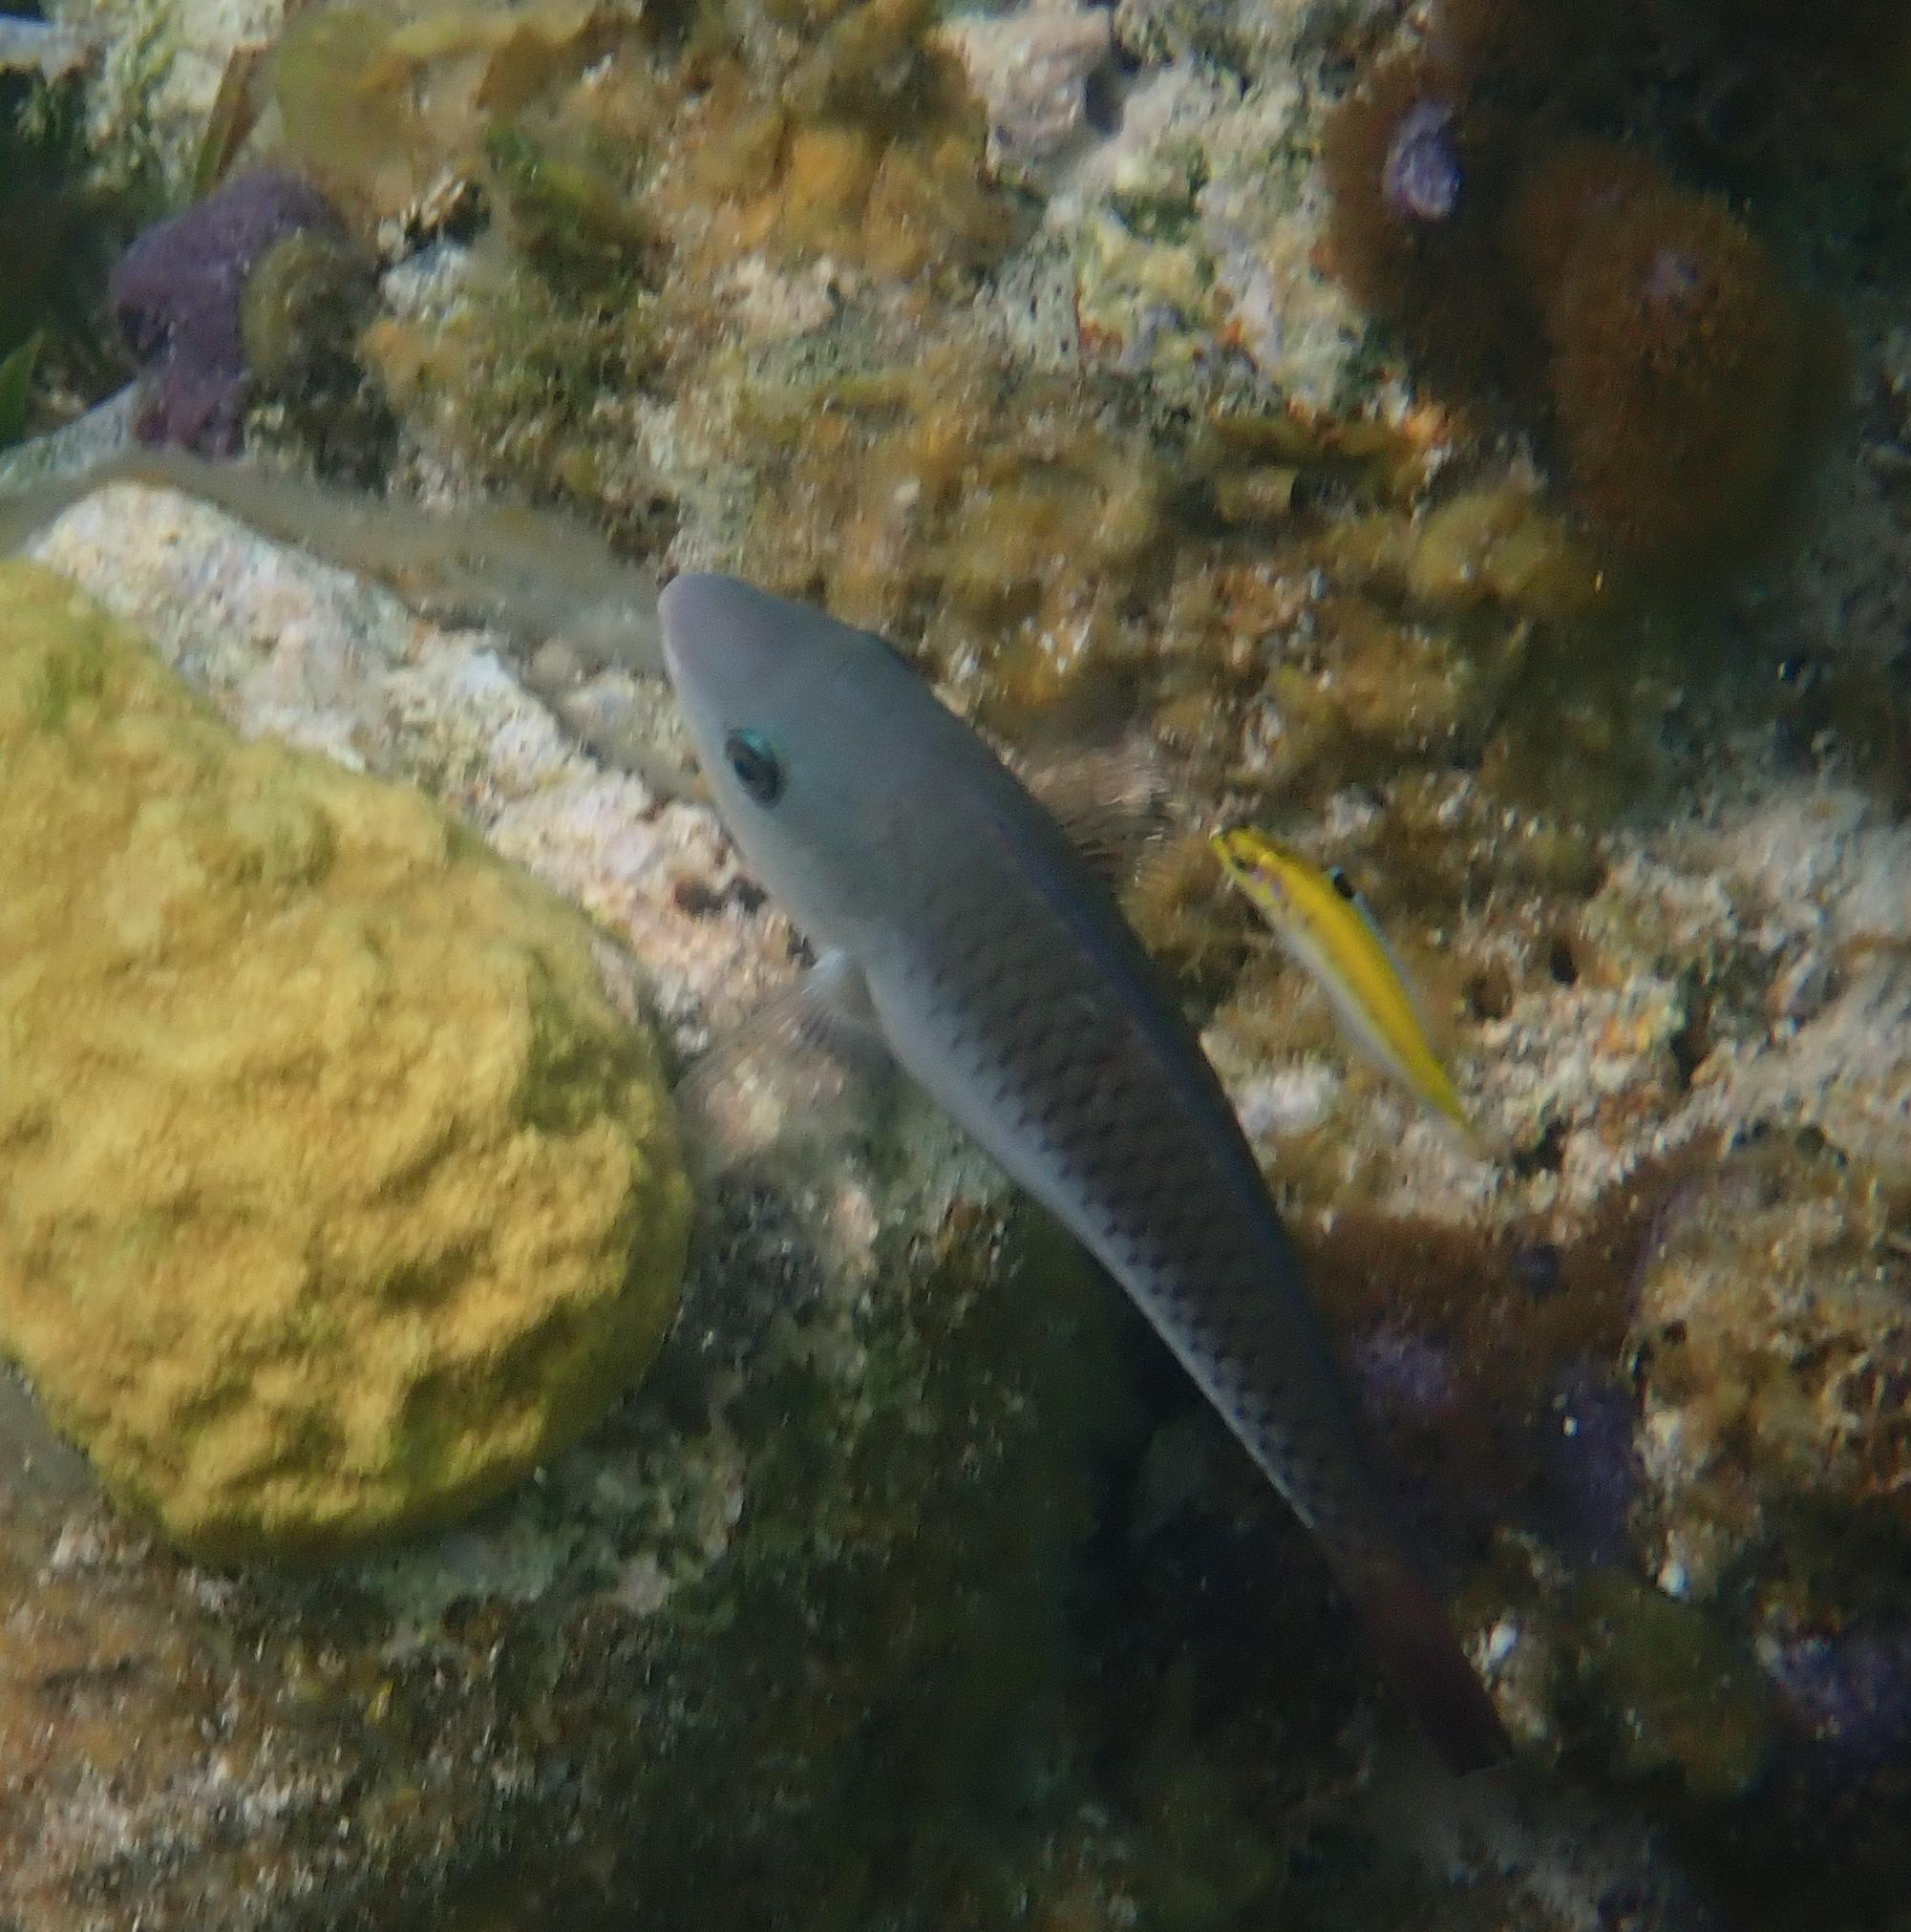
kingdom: Animalia
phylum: Chordata
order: Perciformes
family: Scaridae
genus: Scarus
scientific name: Scarus vetula
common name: Queen parrotfish
